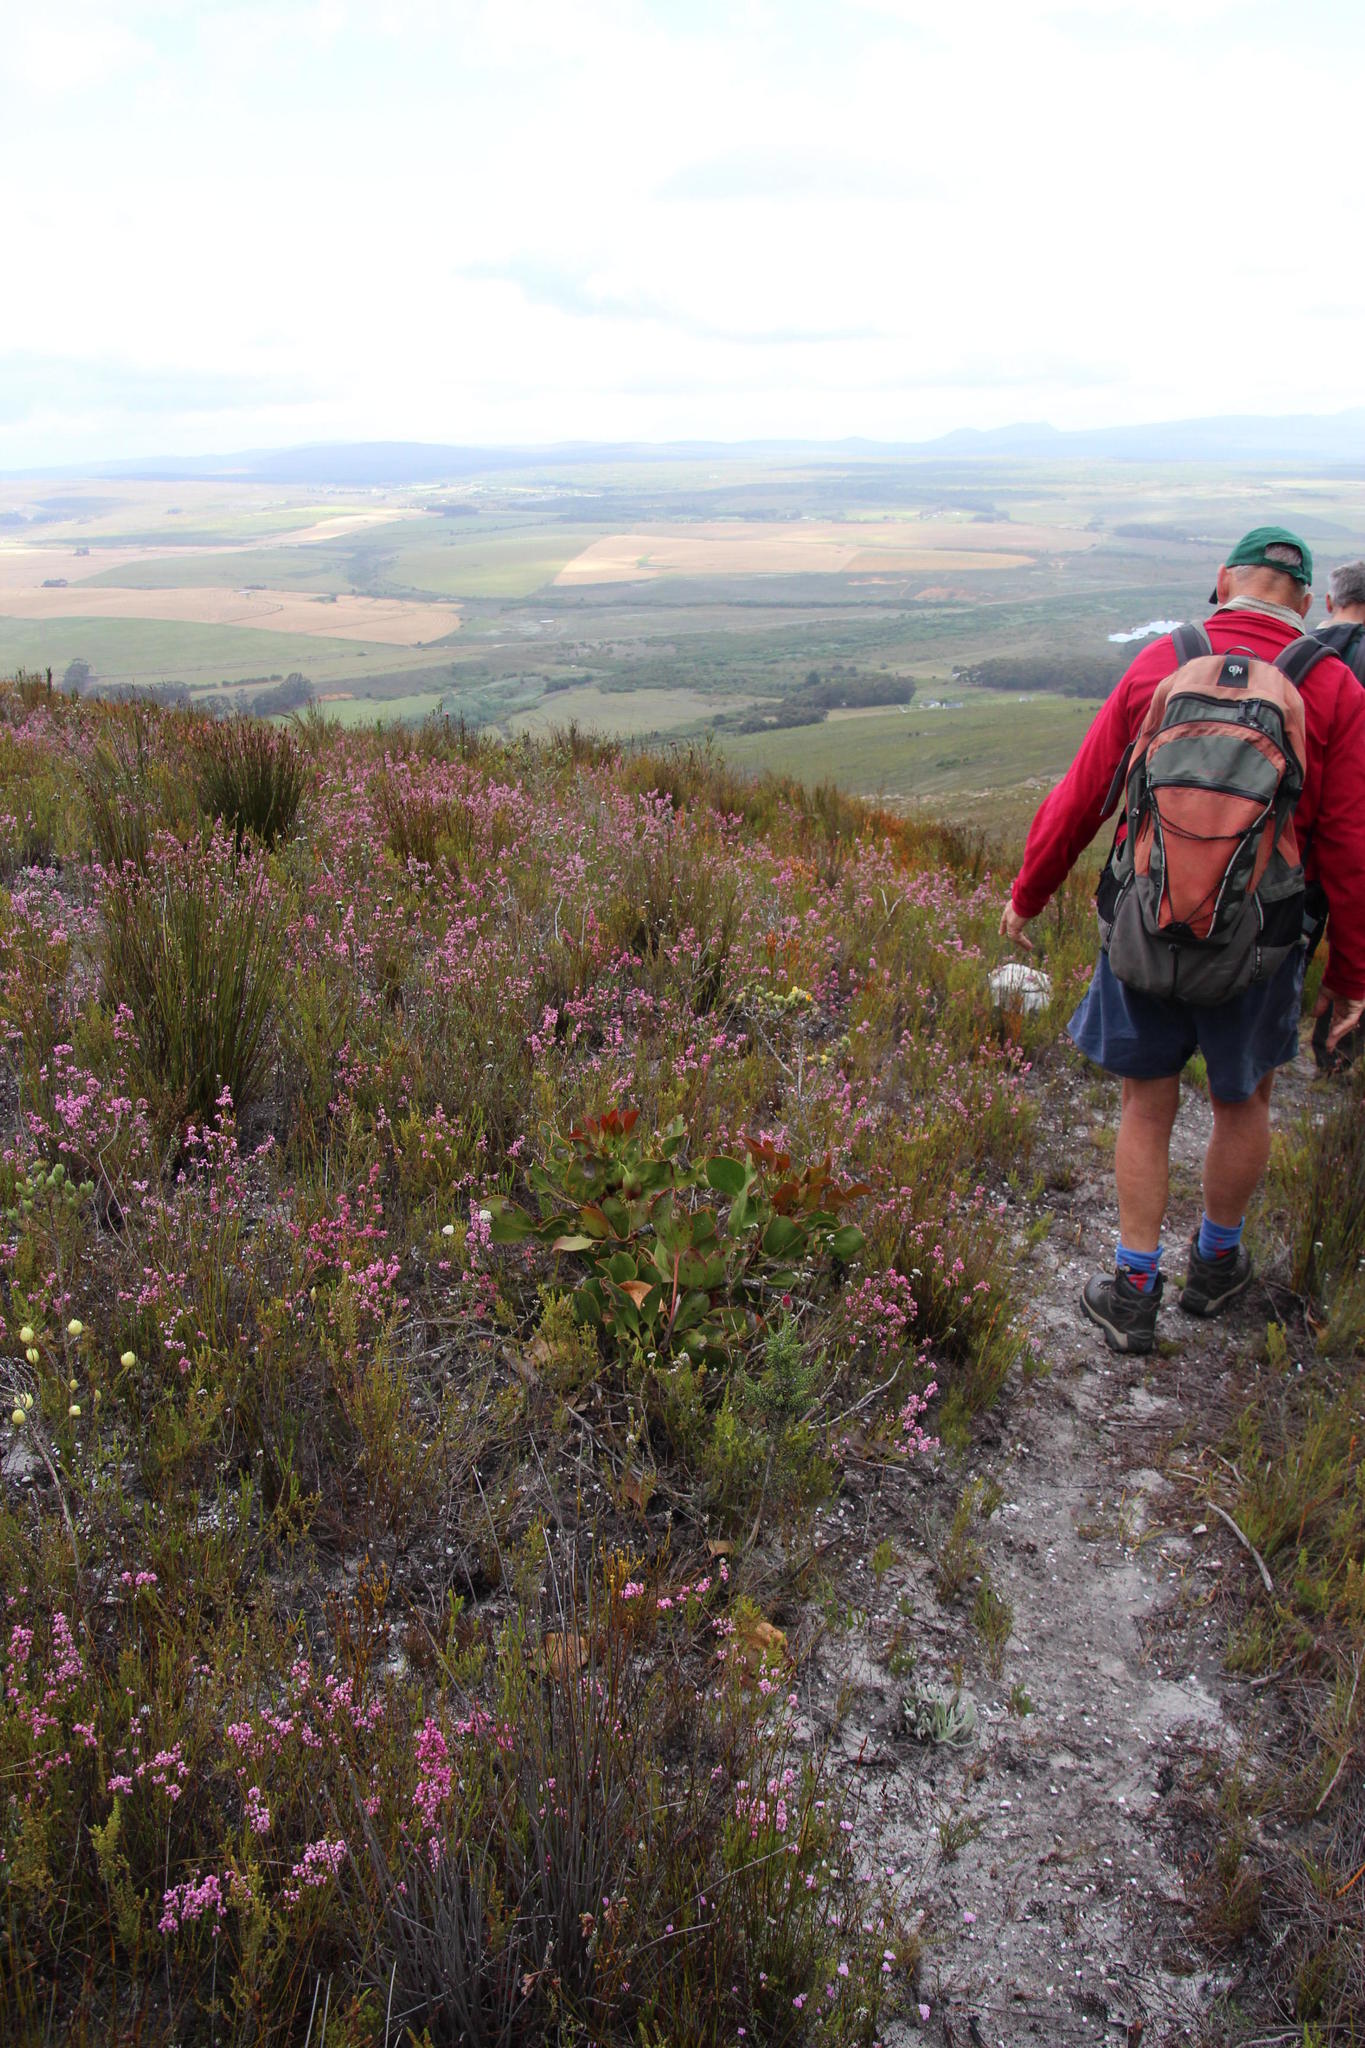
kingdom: Plantae
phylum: Tracheophyta
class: Magnoliopsida
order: Proteales
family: Proteaceae
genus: Protea
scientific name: Protea cynaroides
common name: King protea
